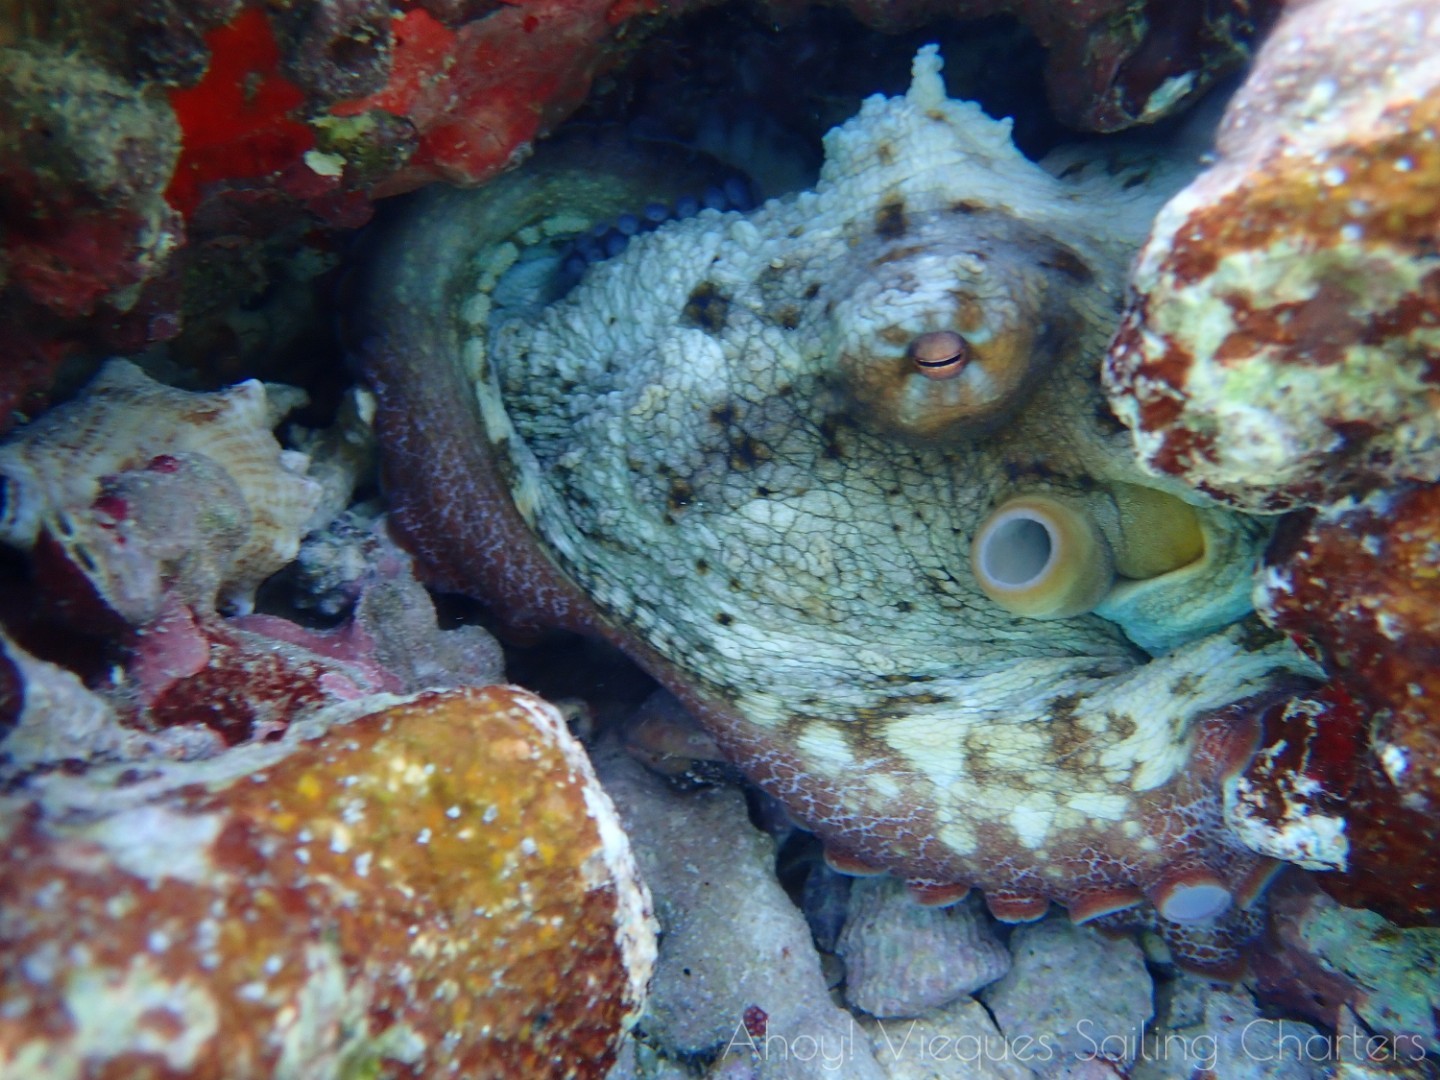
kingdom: Animalia
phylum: Mollusca
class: Cephalopoda
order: Octopoda
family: Octopodidae
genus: Octopus
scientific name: Octopus insularis
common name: Brazil reef octopus
